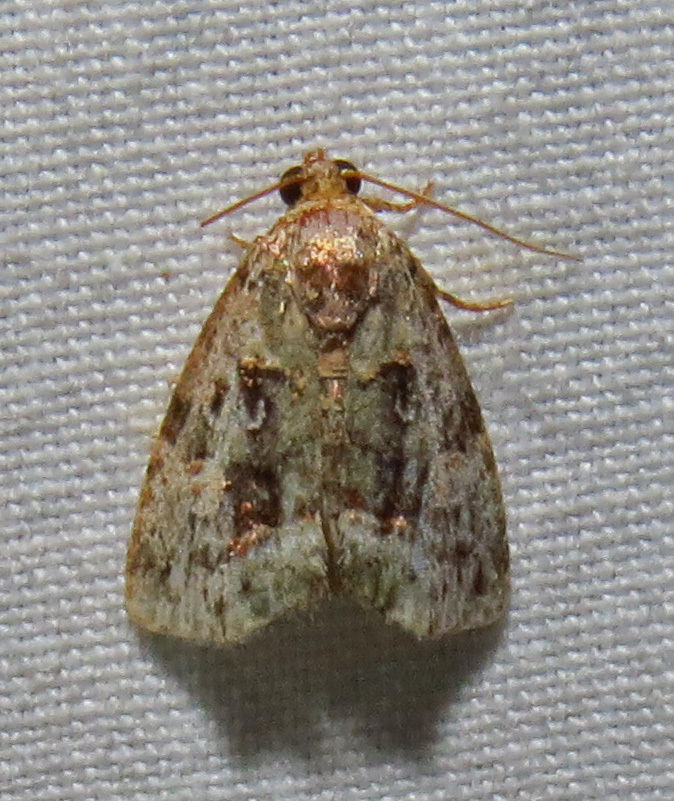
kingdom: Animalia
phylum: Arthropoda
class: Insecta
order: Lepidoptera
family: Noctuidae
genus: Lithacodia
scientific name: Lithacodia musta
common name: Small mossy glyph
